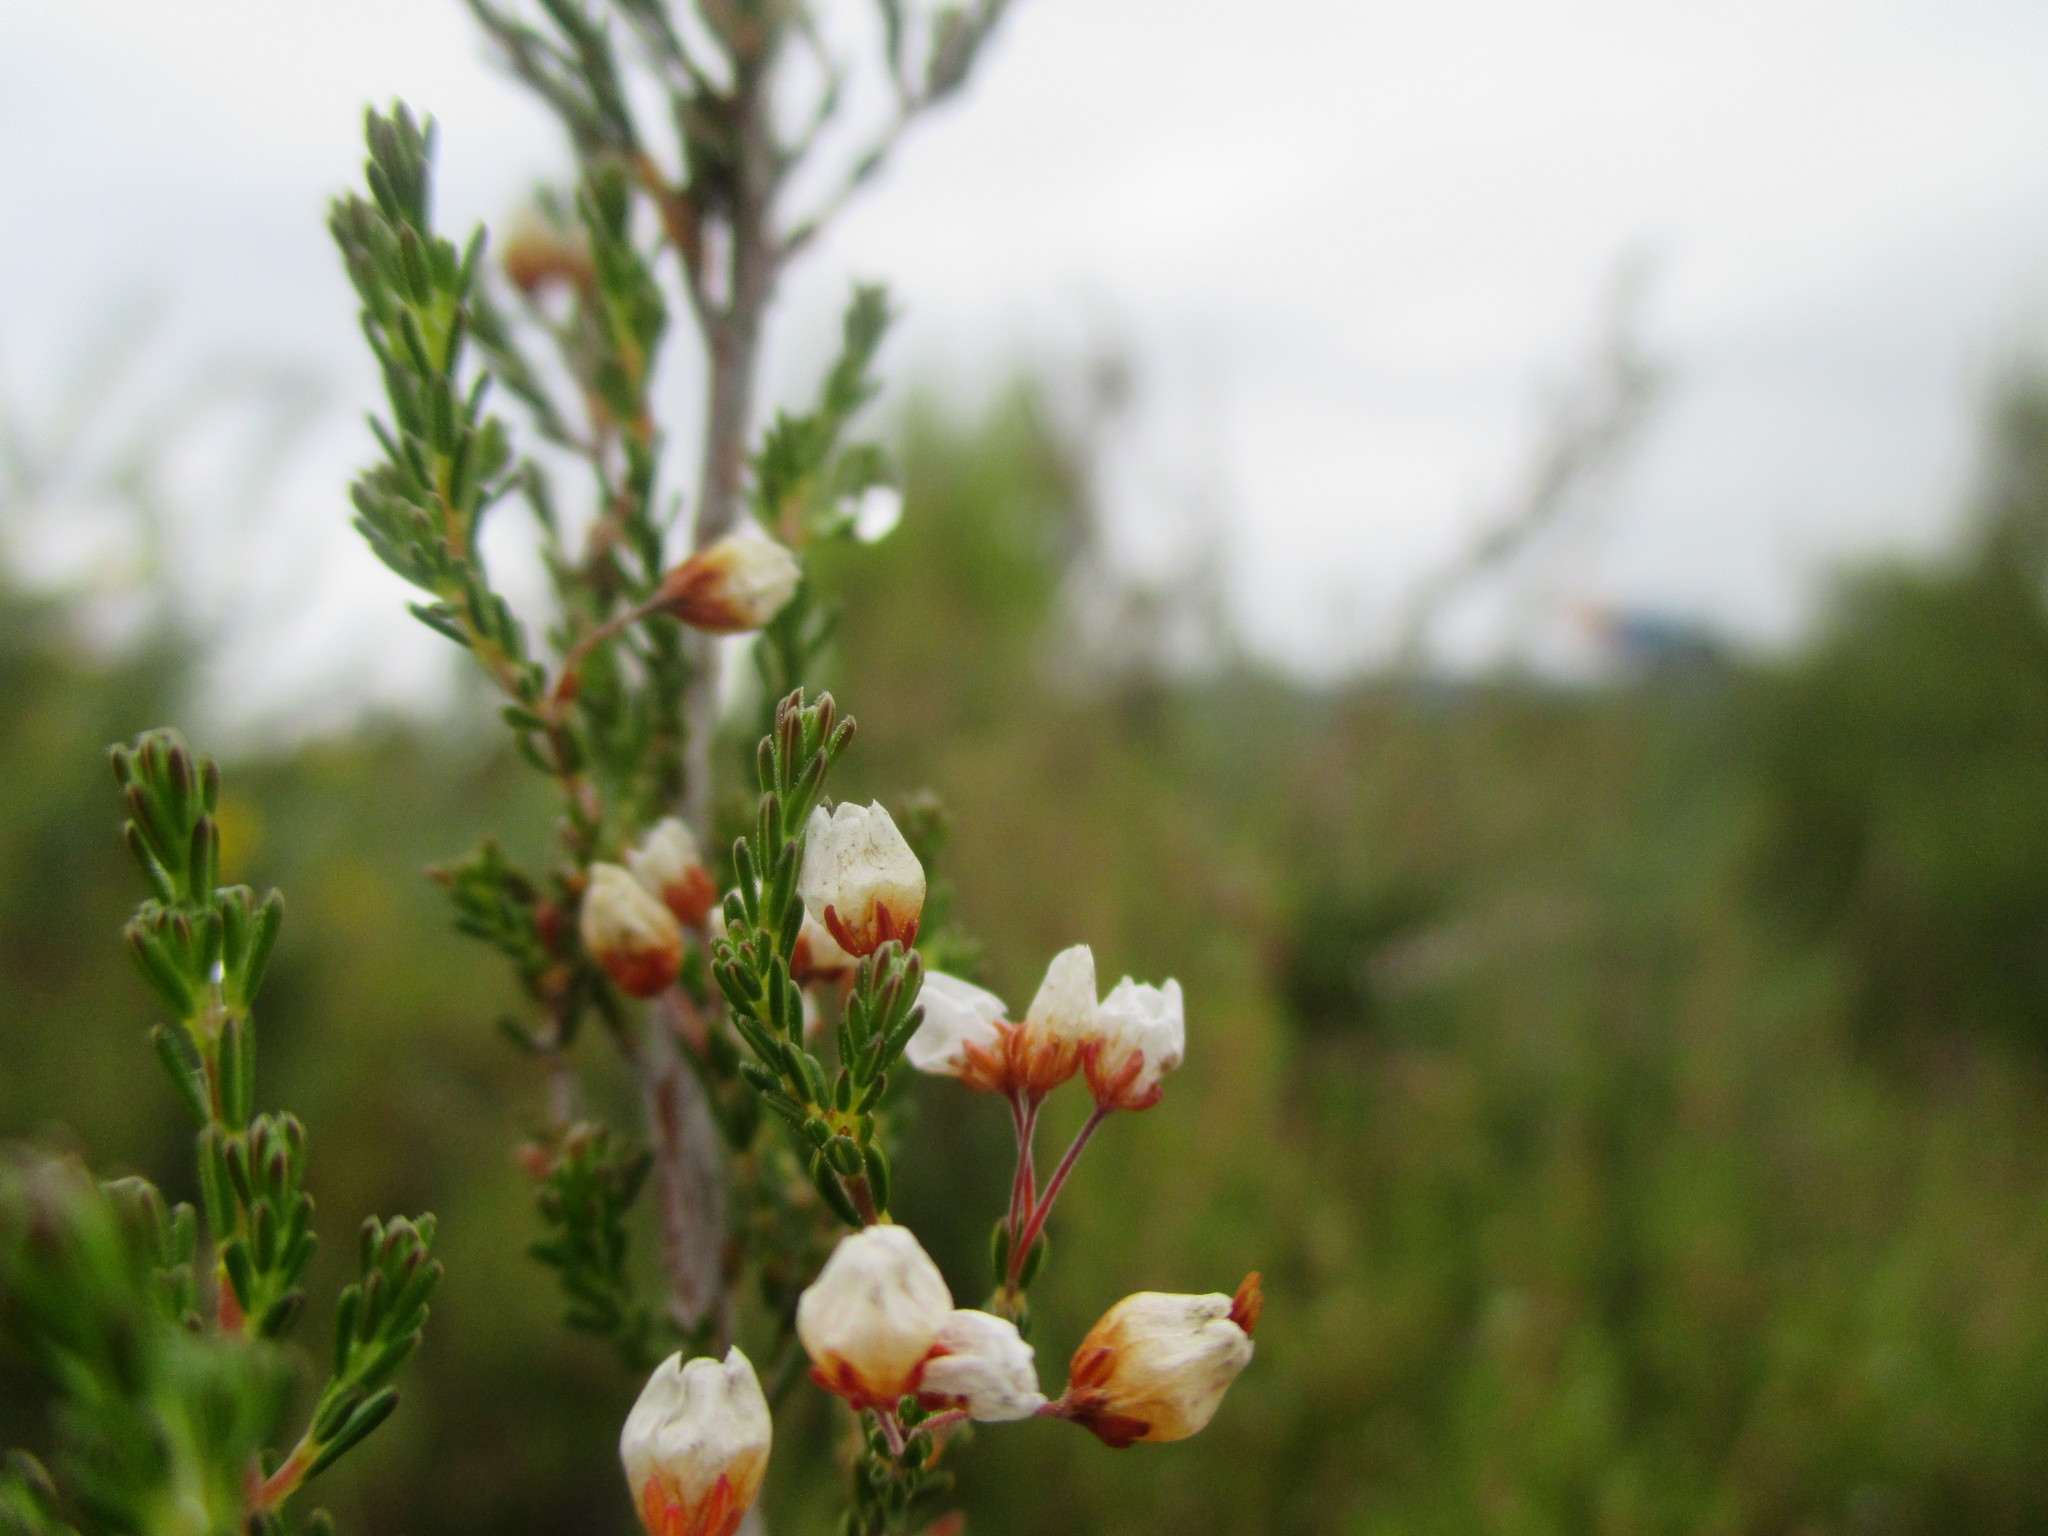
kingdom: Plantae
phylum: Tracheophyta
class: Magnoliopsida
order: Ericales
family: Ericaceae
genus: Erica
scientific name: Erica arborea
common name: Tree heath
